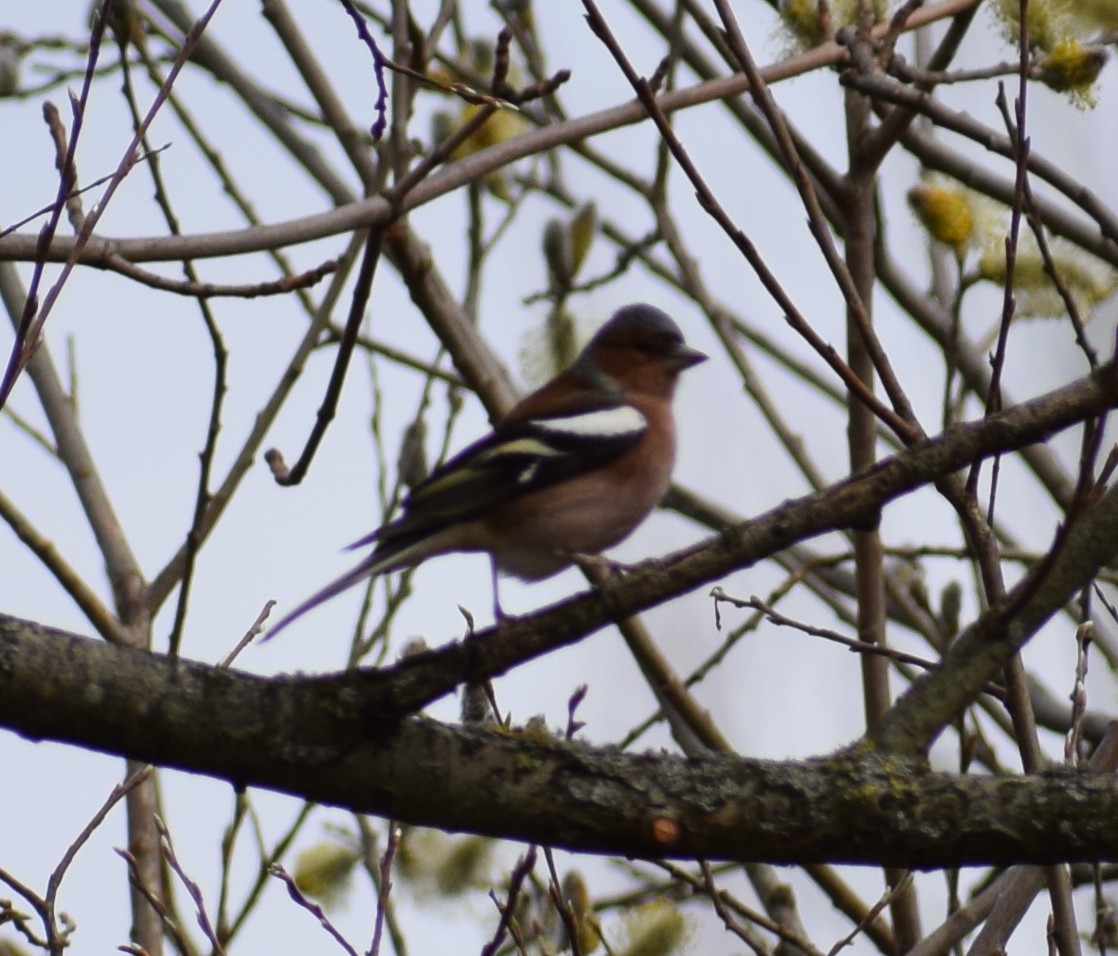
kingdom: Animalia
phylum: Chordata
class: Aves
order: Passeriformes
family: Fringillidae
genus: Fringilla
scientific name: Fringilla coelebs
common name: Common chaffinch
